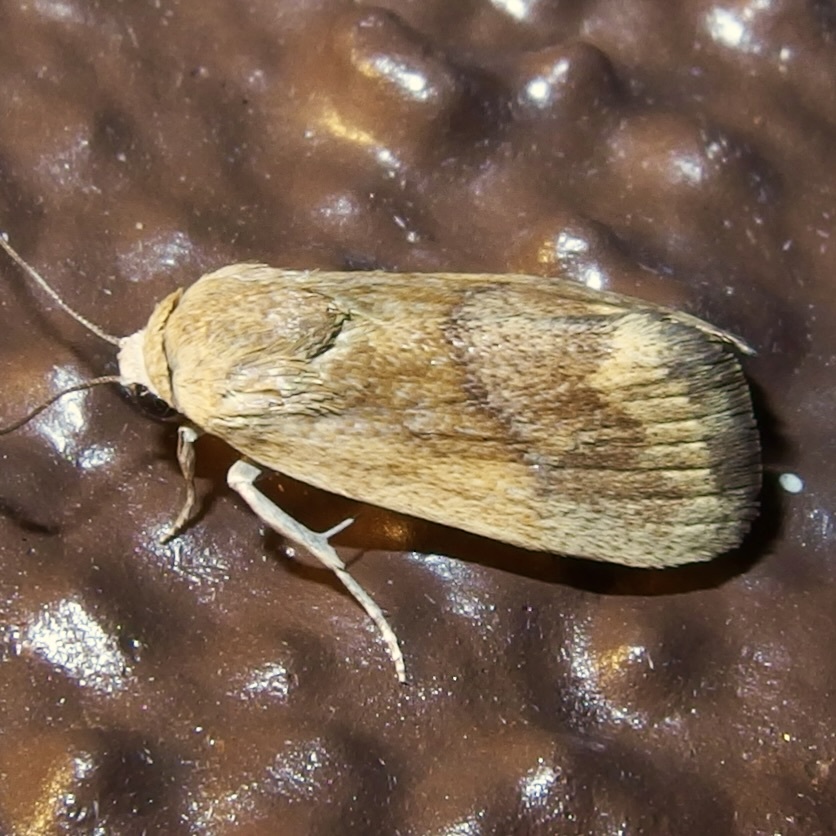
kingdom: Animalia
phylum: Arthropoda
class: Insecta
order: Lepidoptera
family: Noctuidae
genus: Acontia
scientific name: Acontia fasciatella
